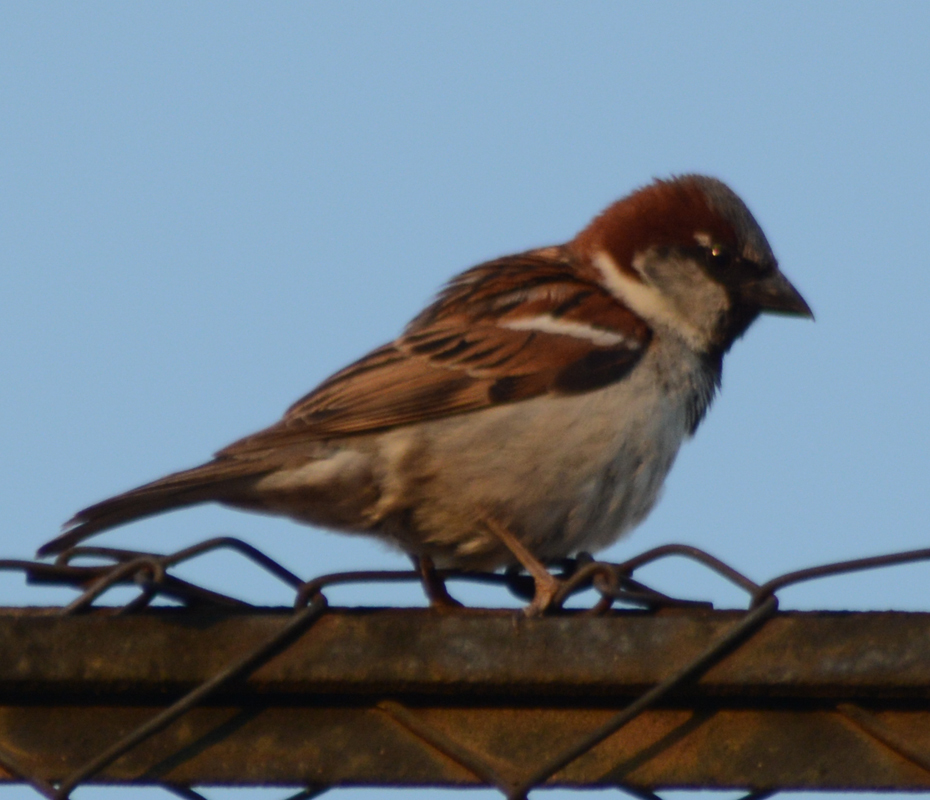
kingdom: Animalia
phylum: Chordata
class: Aves
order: Passeriformes
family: Passeridae
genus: Passer
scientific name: Passer domesticus
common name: House sparrow
